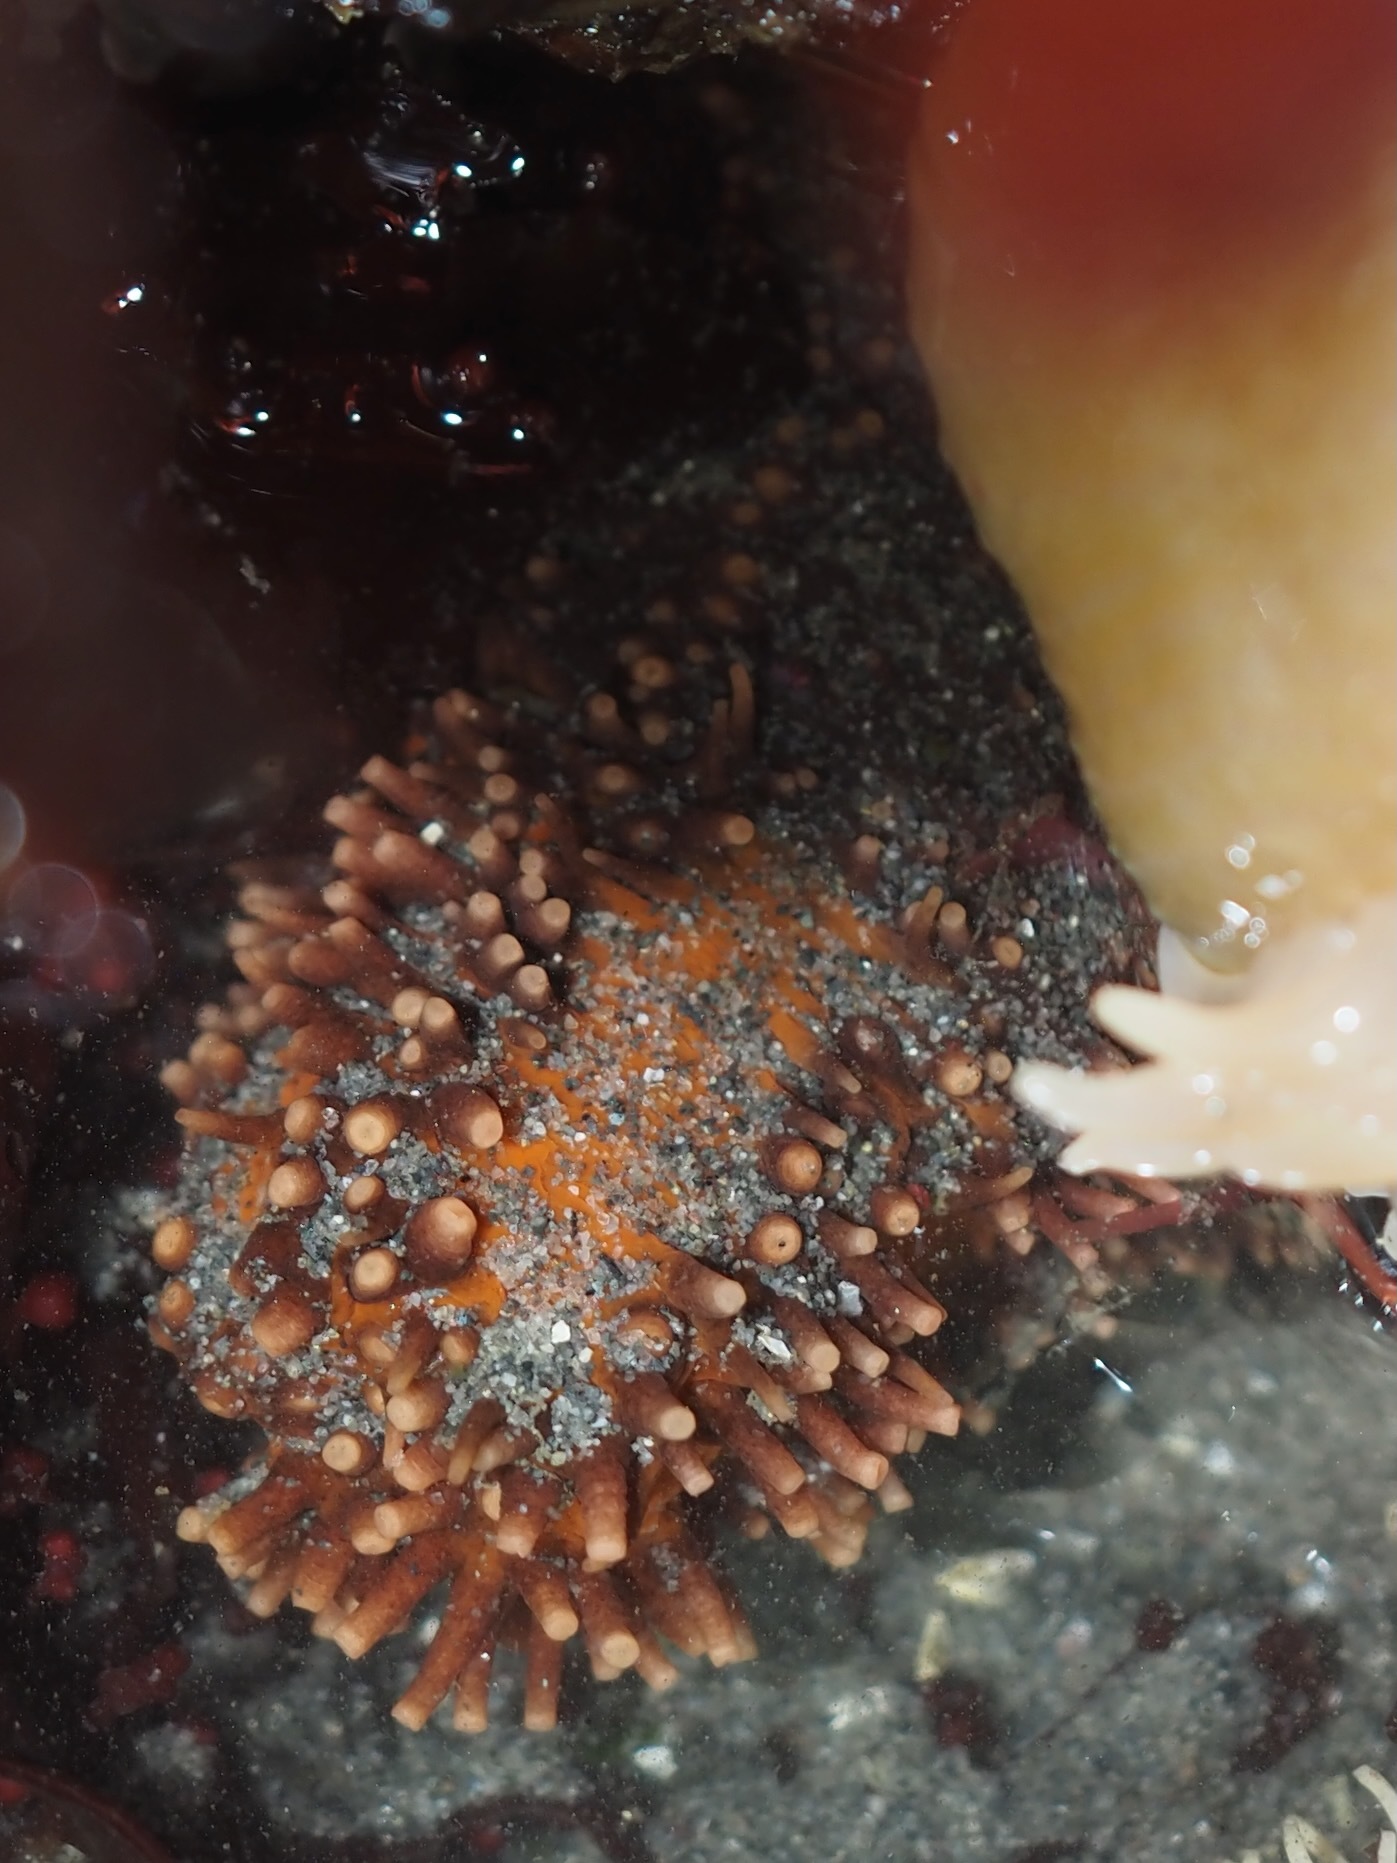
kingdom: Animalia
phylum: Echinodermata
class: Holothuroidea
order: Dendrochirotida
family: Cucumariidae
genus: Cucumaria
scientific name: Cucumaria miniata
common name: Orange sea cucumber
